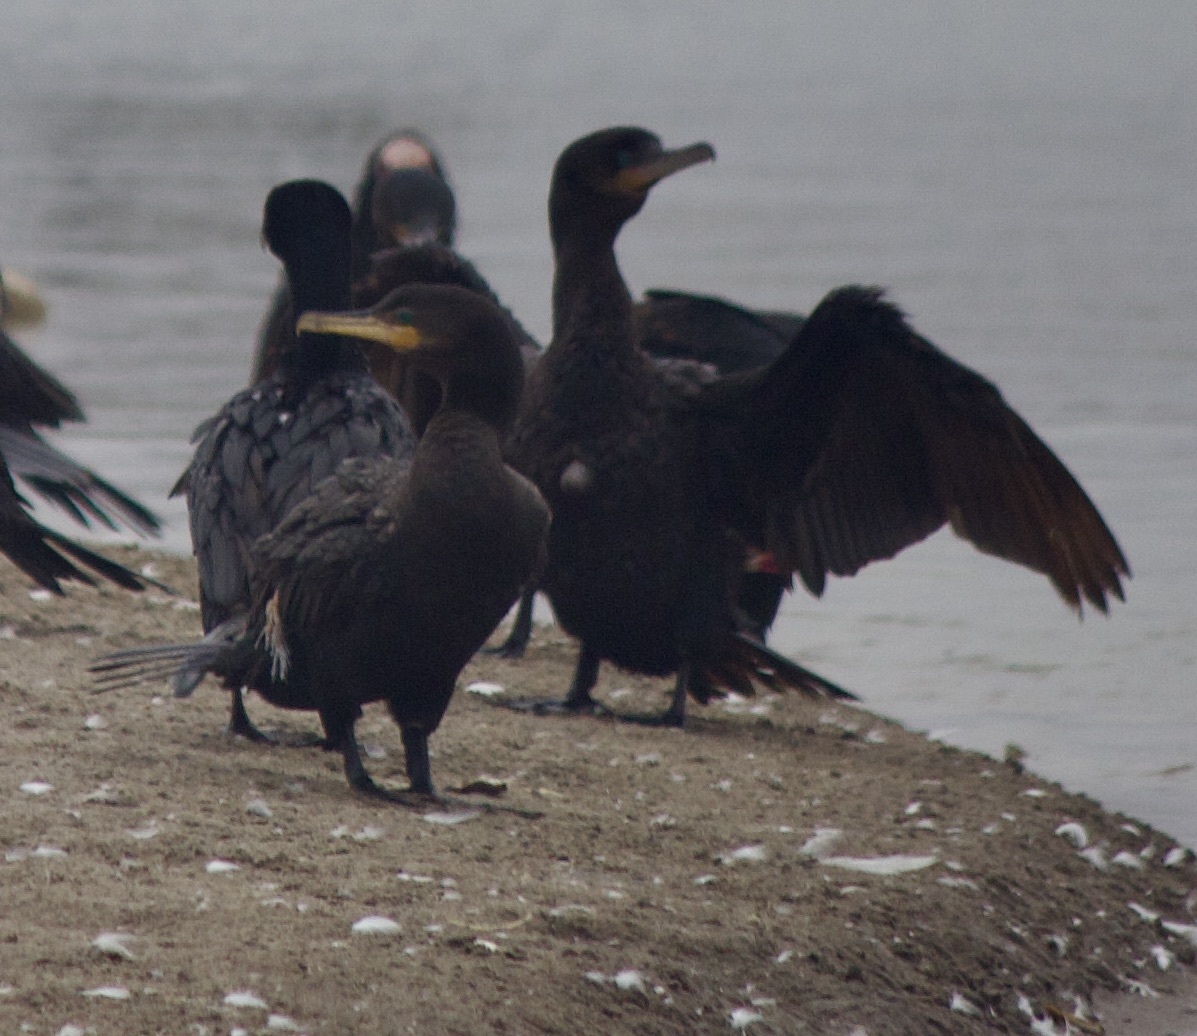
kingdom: Animalia
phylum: Chordata
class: Aves
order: Suliformes
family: Phalacrocoracidae
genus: Phalacrocorax
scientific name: Phalacrocorax brasilianus
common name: Neotropic cormorant
